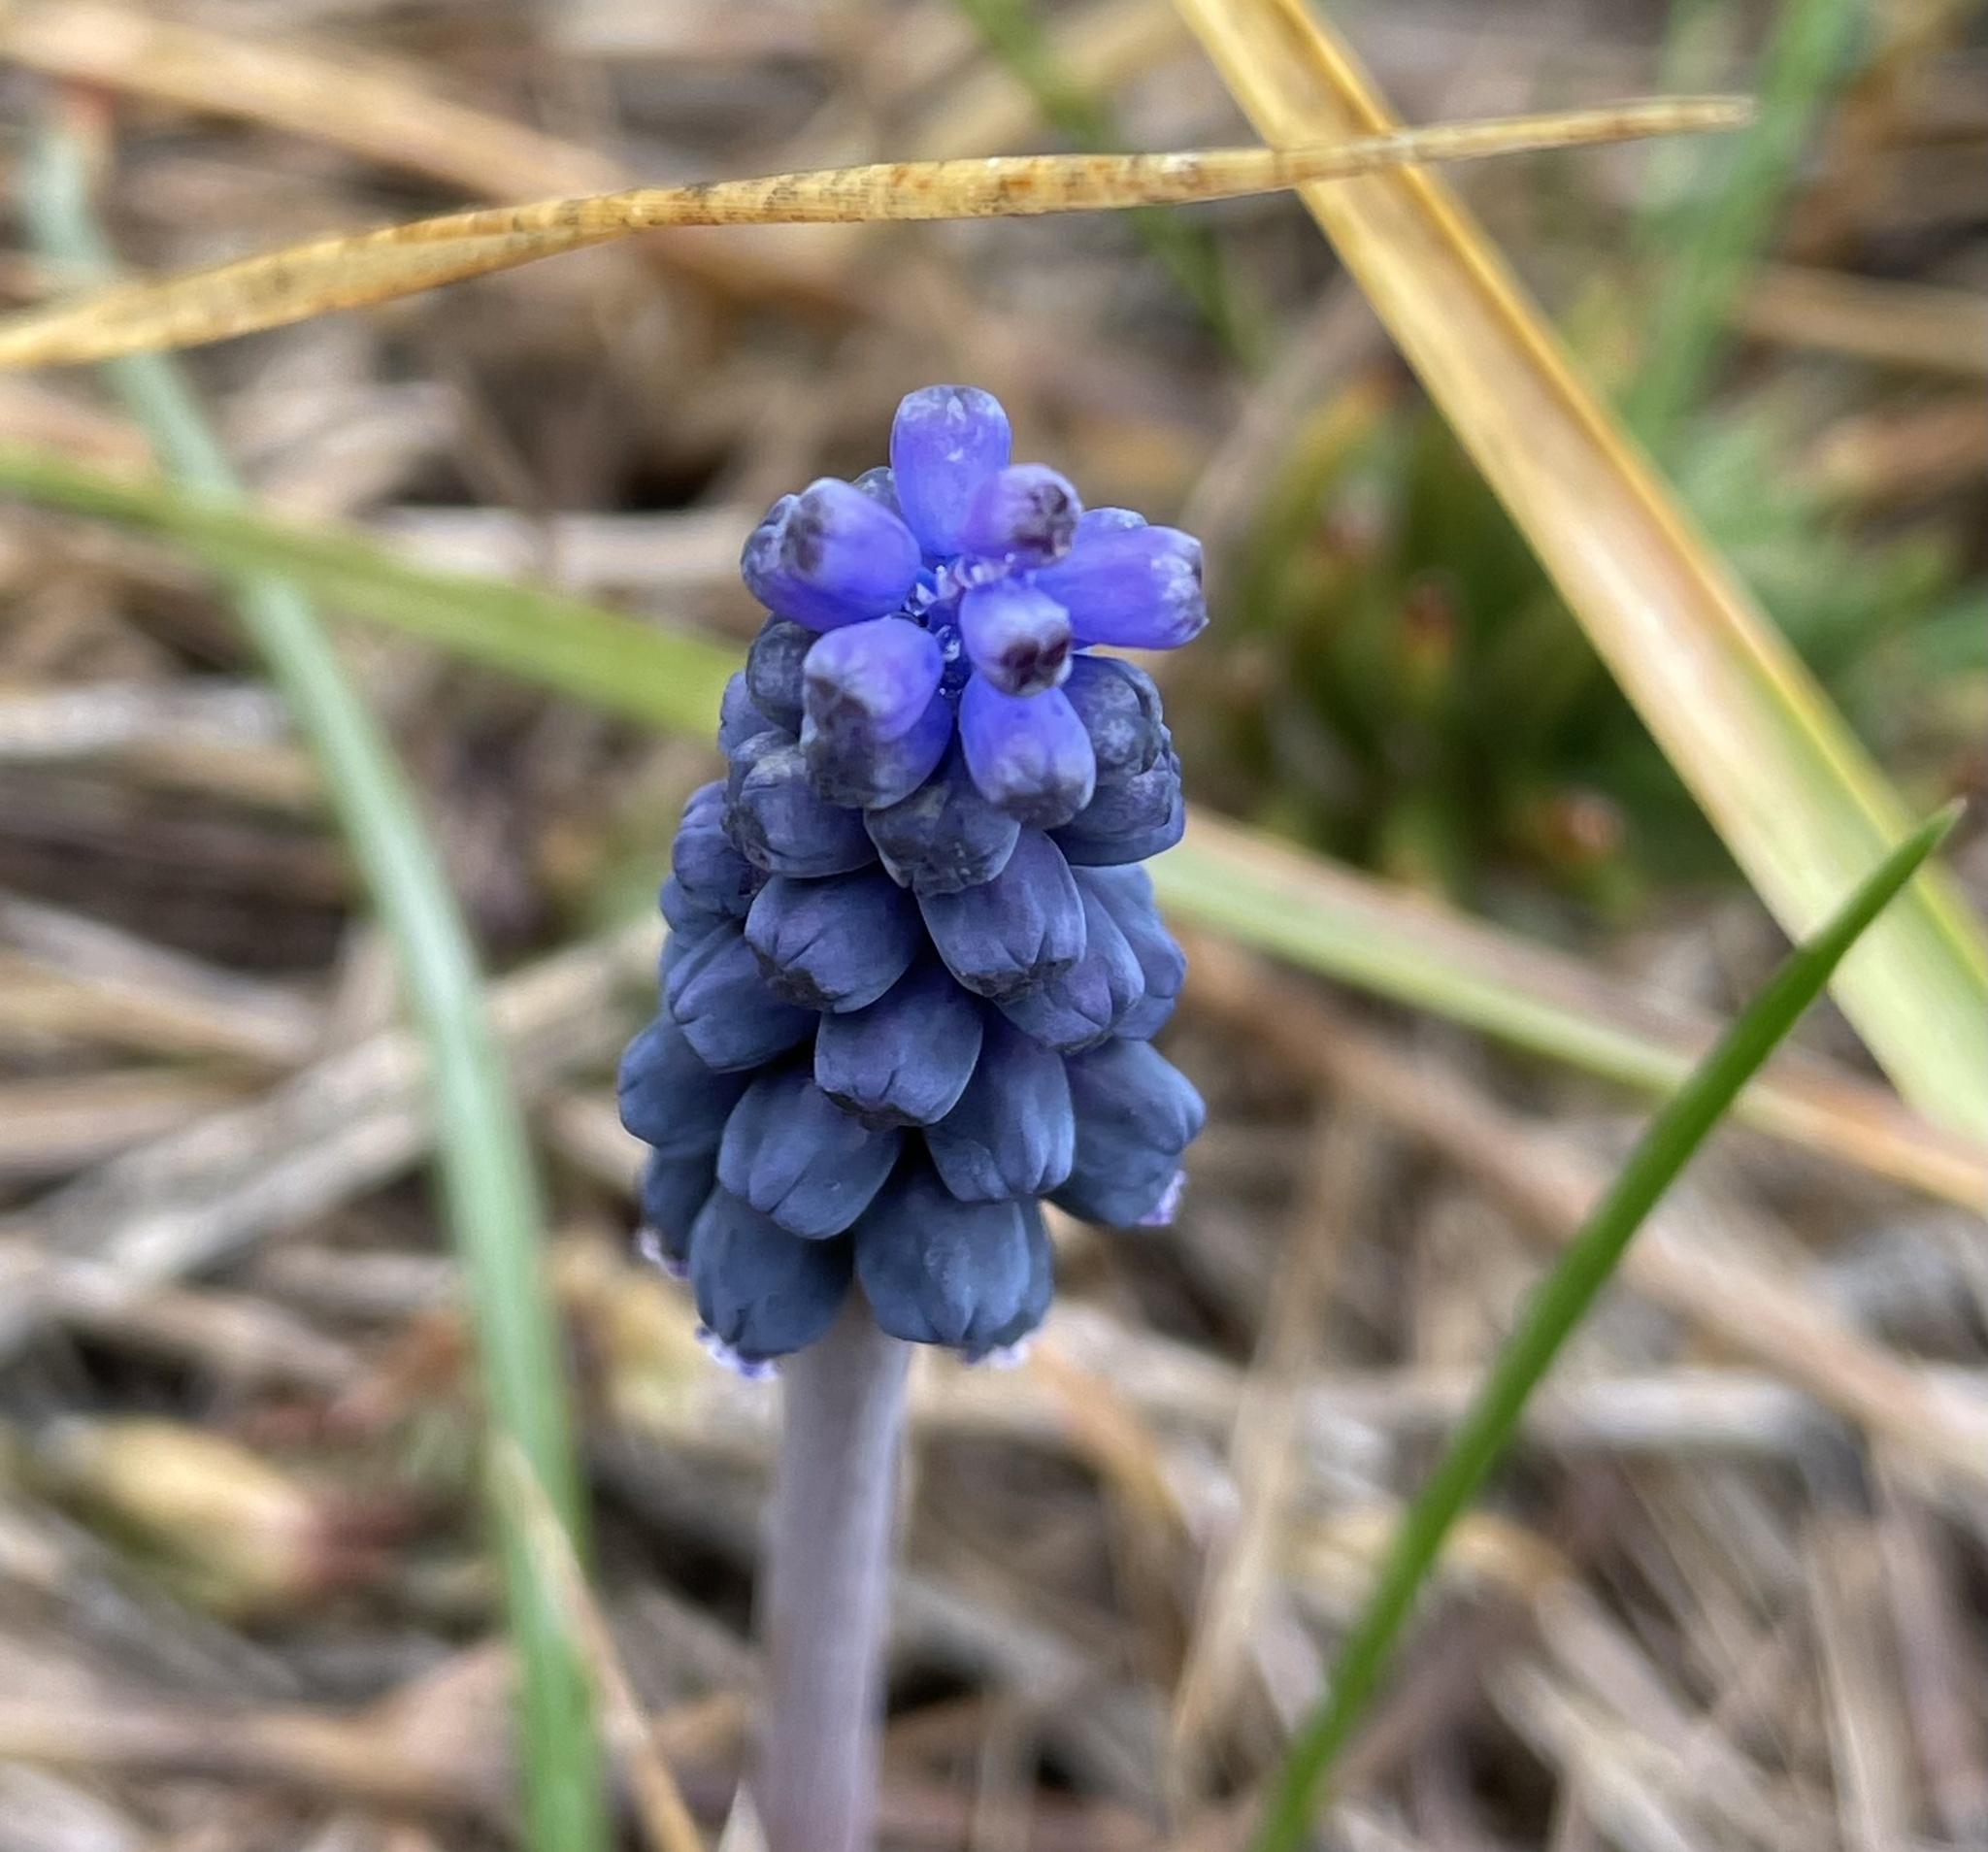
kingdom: Plantae
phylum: Tracheophyta
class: Liliopsida
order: Asparagales
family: Asparagaceae
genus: Muscari
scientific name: Muscari neglectum
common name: Grape-hyacinth
